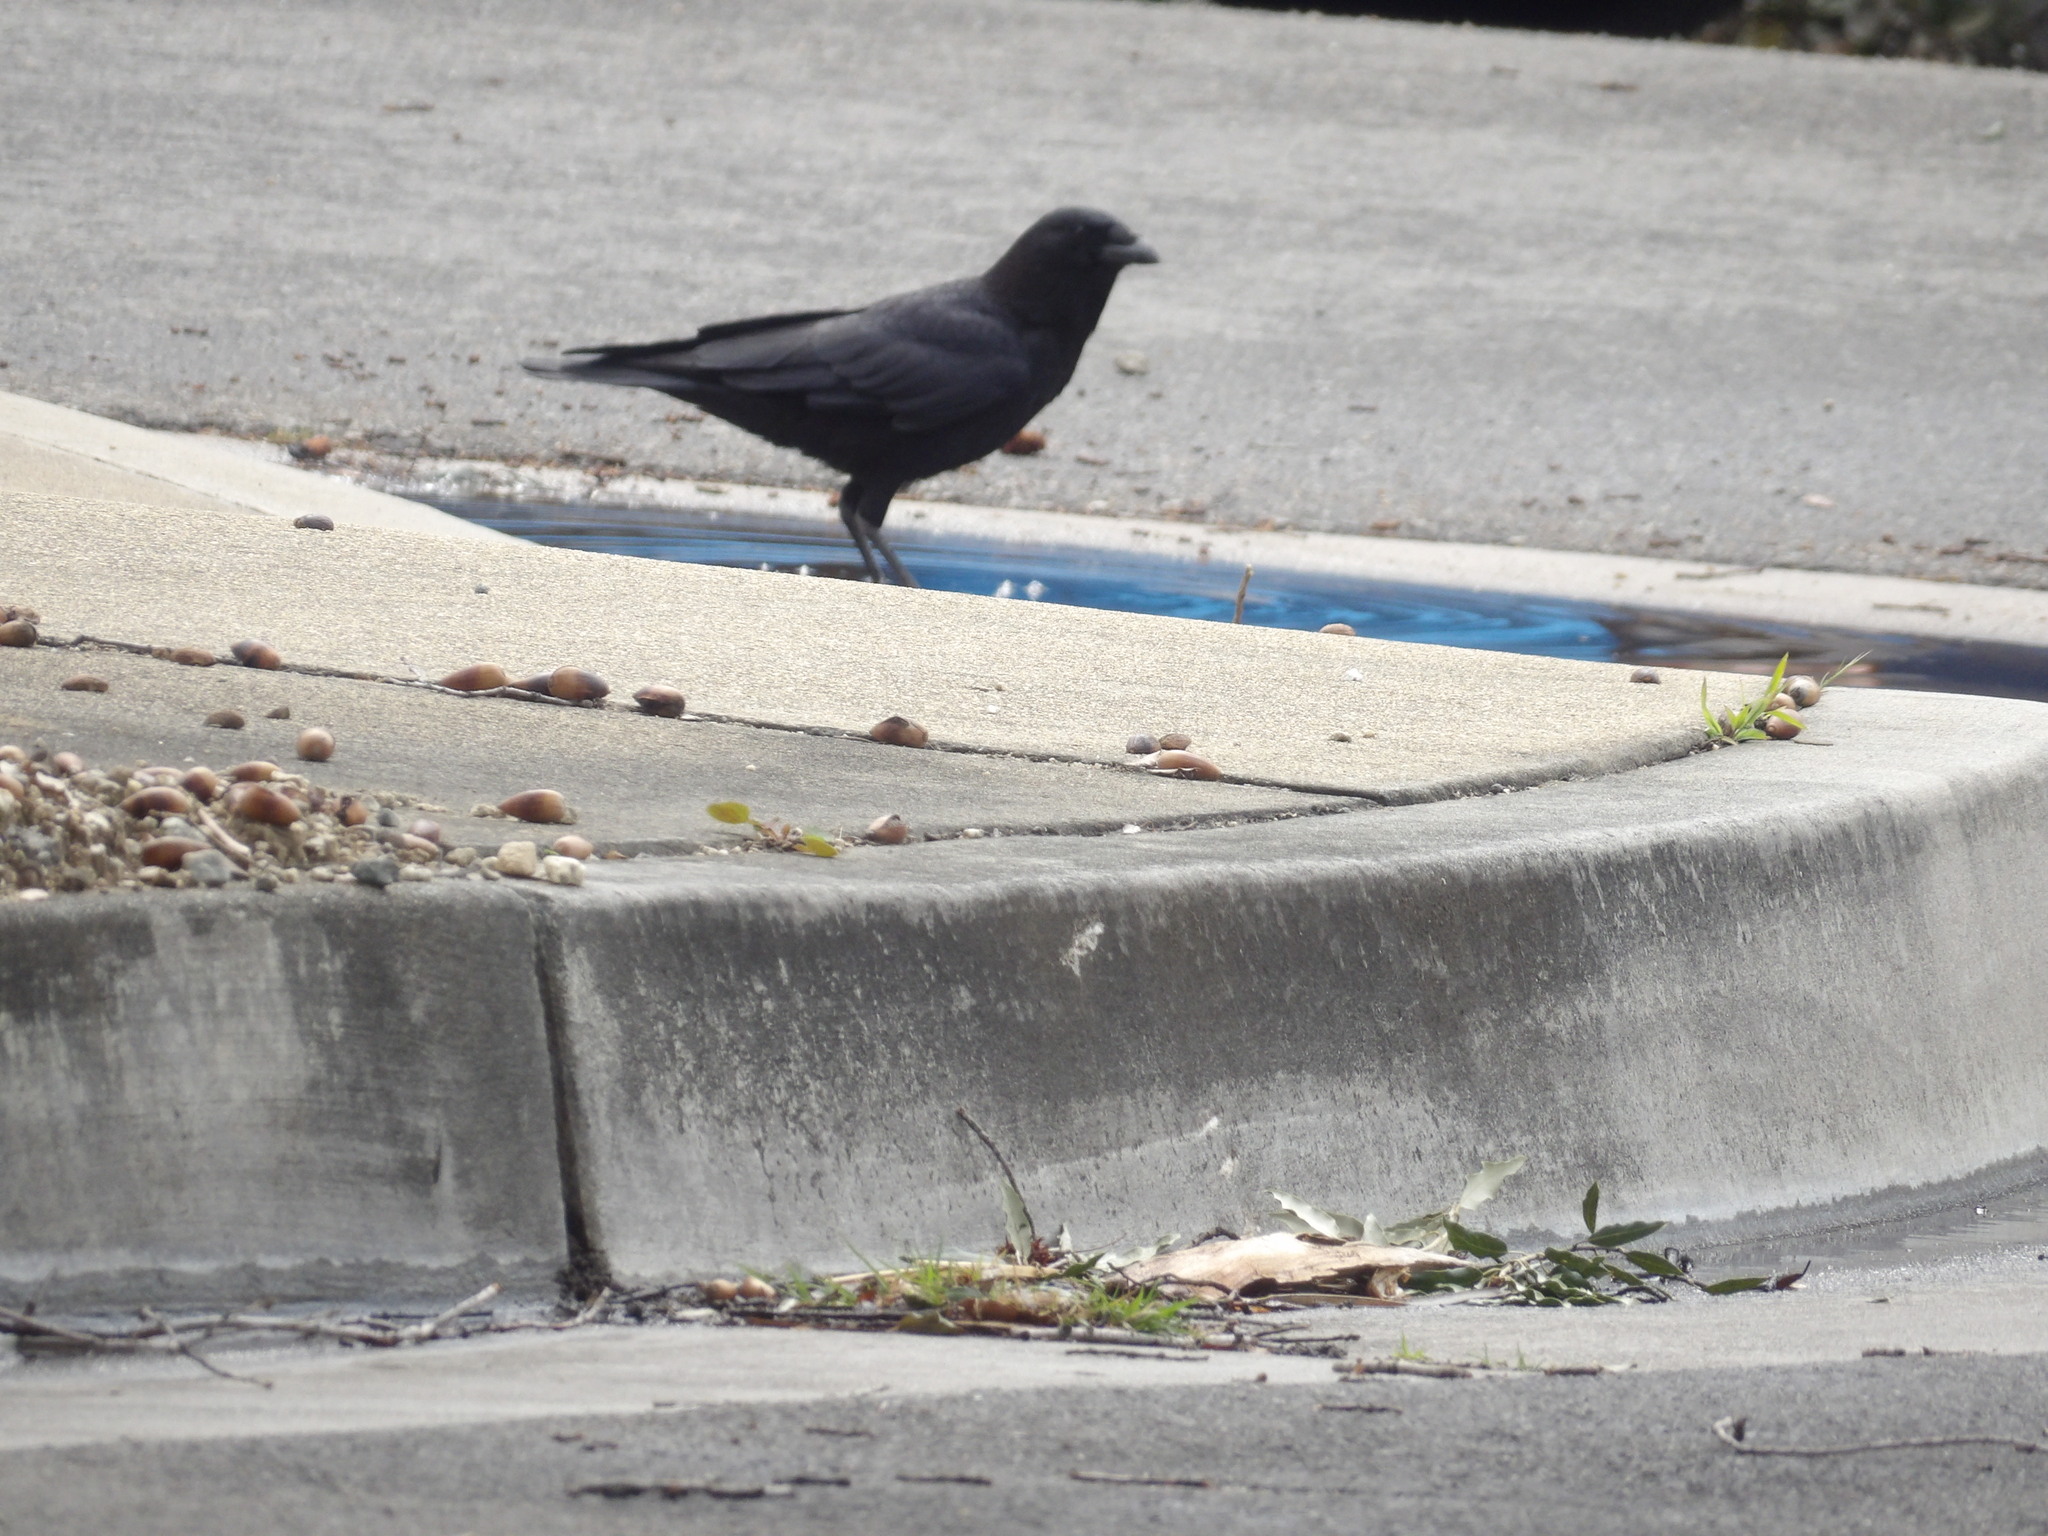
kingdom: Animalia
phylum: Chordata
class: Aves
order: Passeriformes
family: Corvidae
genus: Corvus
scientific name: Corvus brachyrhynchos
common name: American crow
